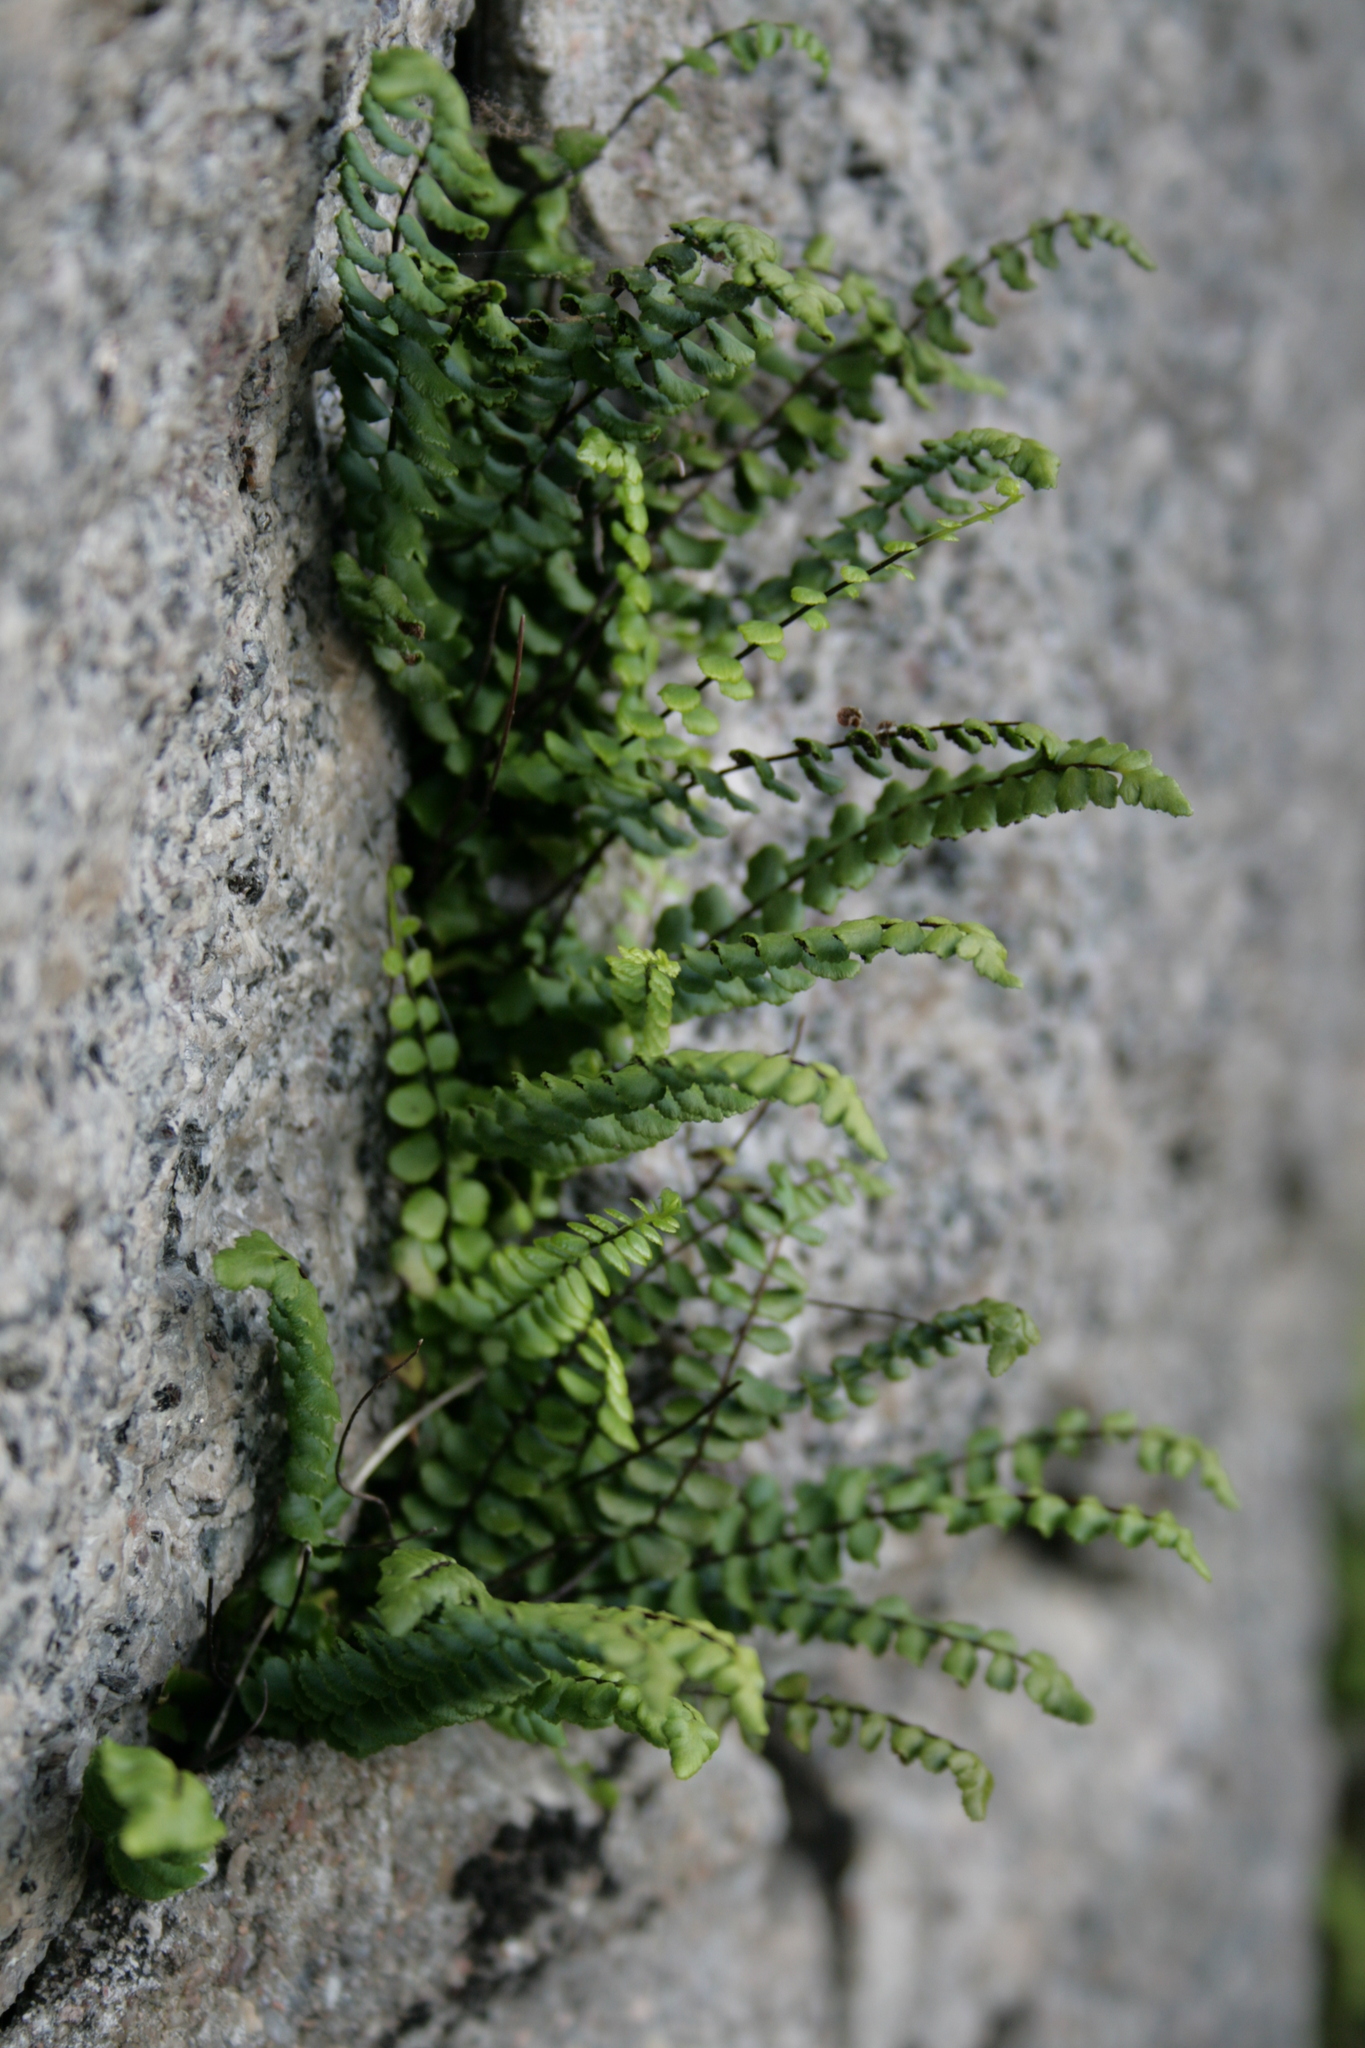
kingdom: Plantae
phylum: Tracheophyta
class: Polypodiopsida
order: Polypodiales
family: Aspleniaceae
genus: Asplenium
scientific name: Asplenium trichomanes
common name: Maidenhair spleenwort
